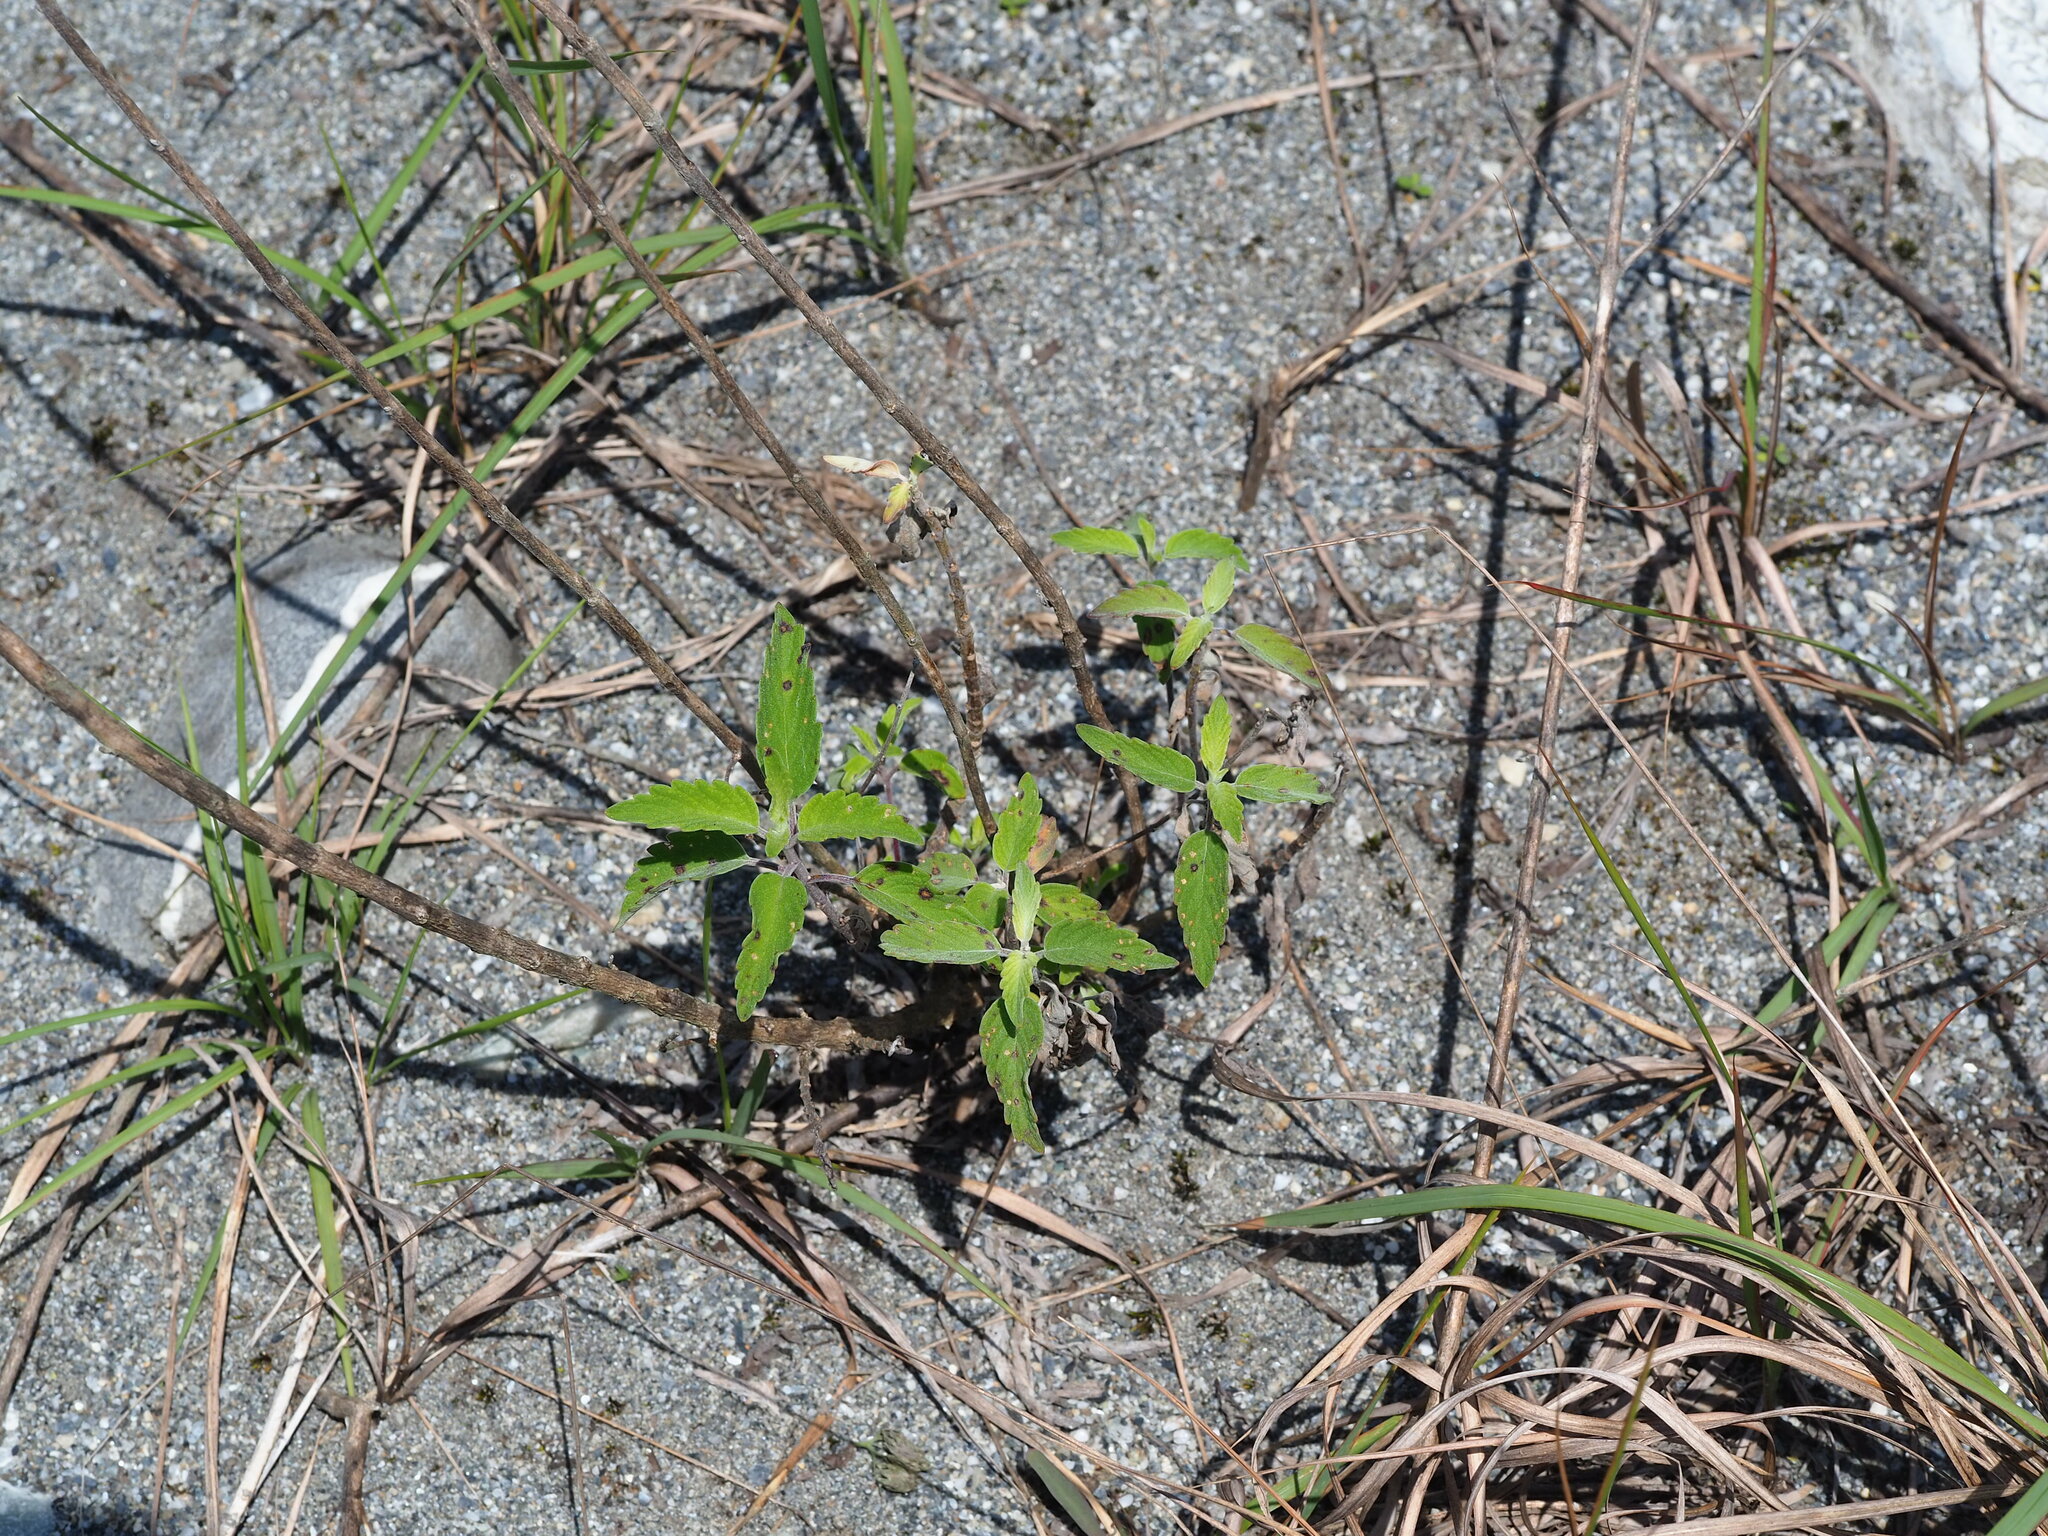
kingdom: Plantae
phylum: Tracheophyta
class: Magnoliopsida
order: Lamiales
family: Lamiaceae
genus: Caryopteris
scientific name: Caryopteris incana
